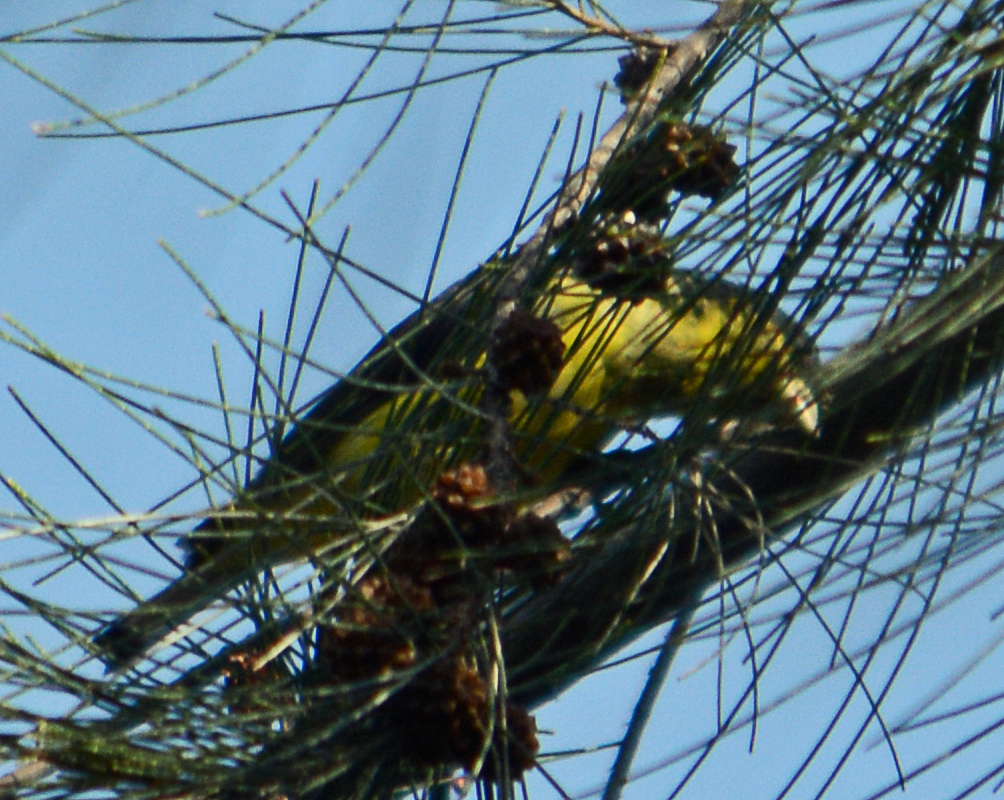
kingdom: Animalia
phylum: Chordata
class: Aves
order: Passeriformes
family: Fringillidae
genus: Spinus
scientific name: Spinus psaltria
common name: Lesser goldfinch
